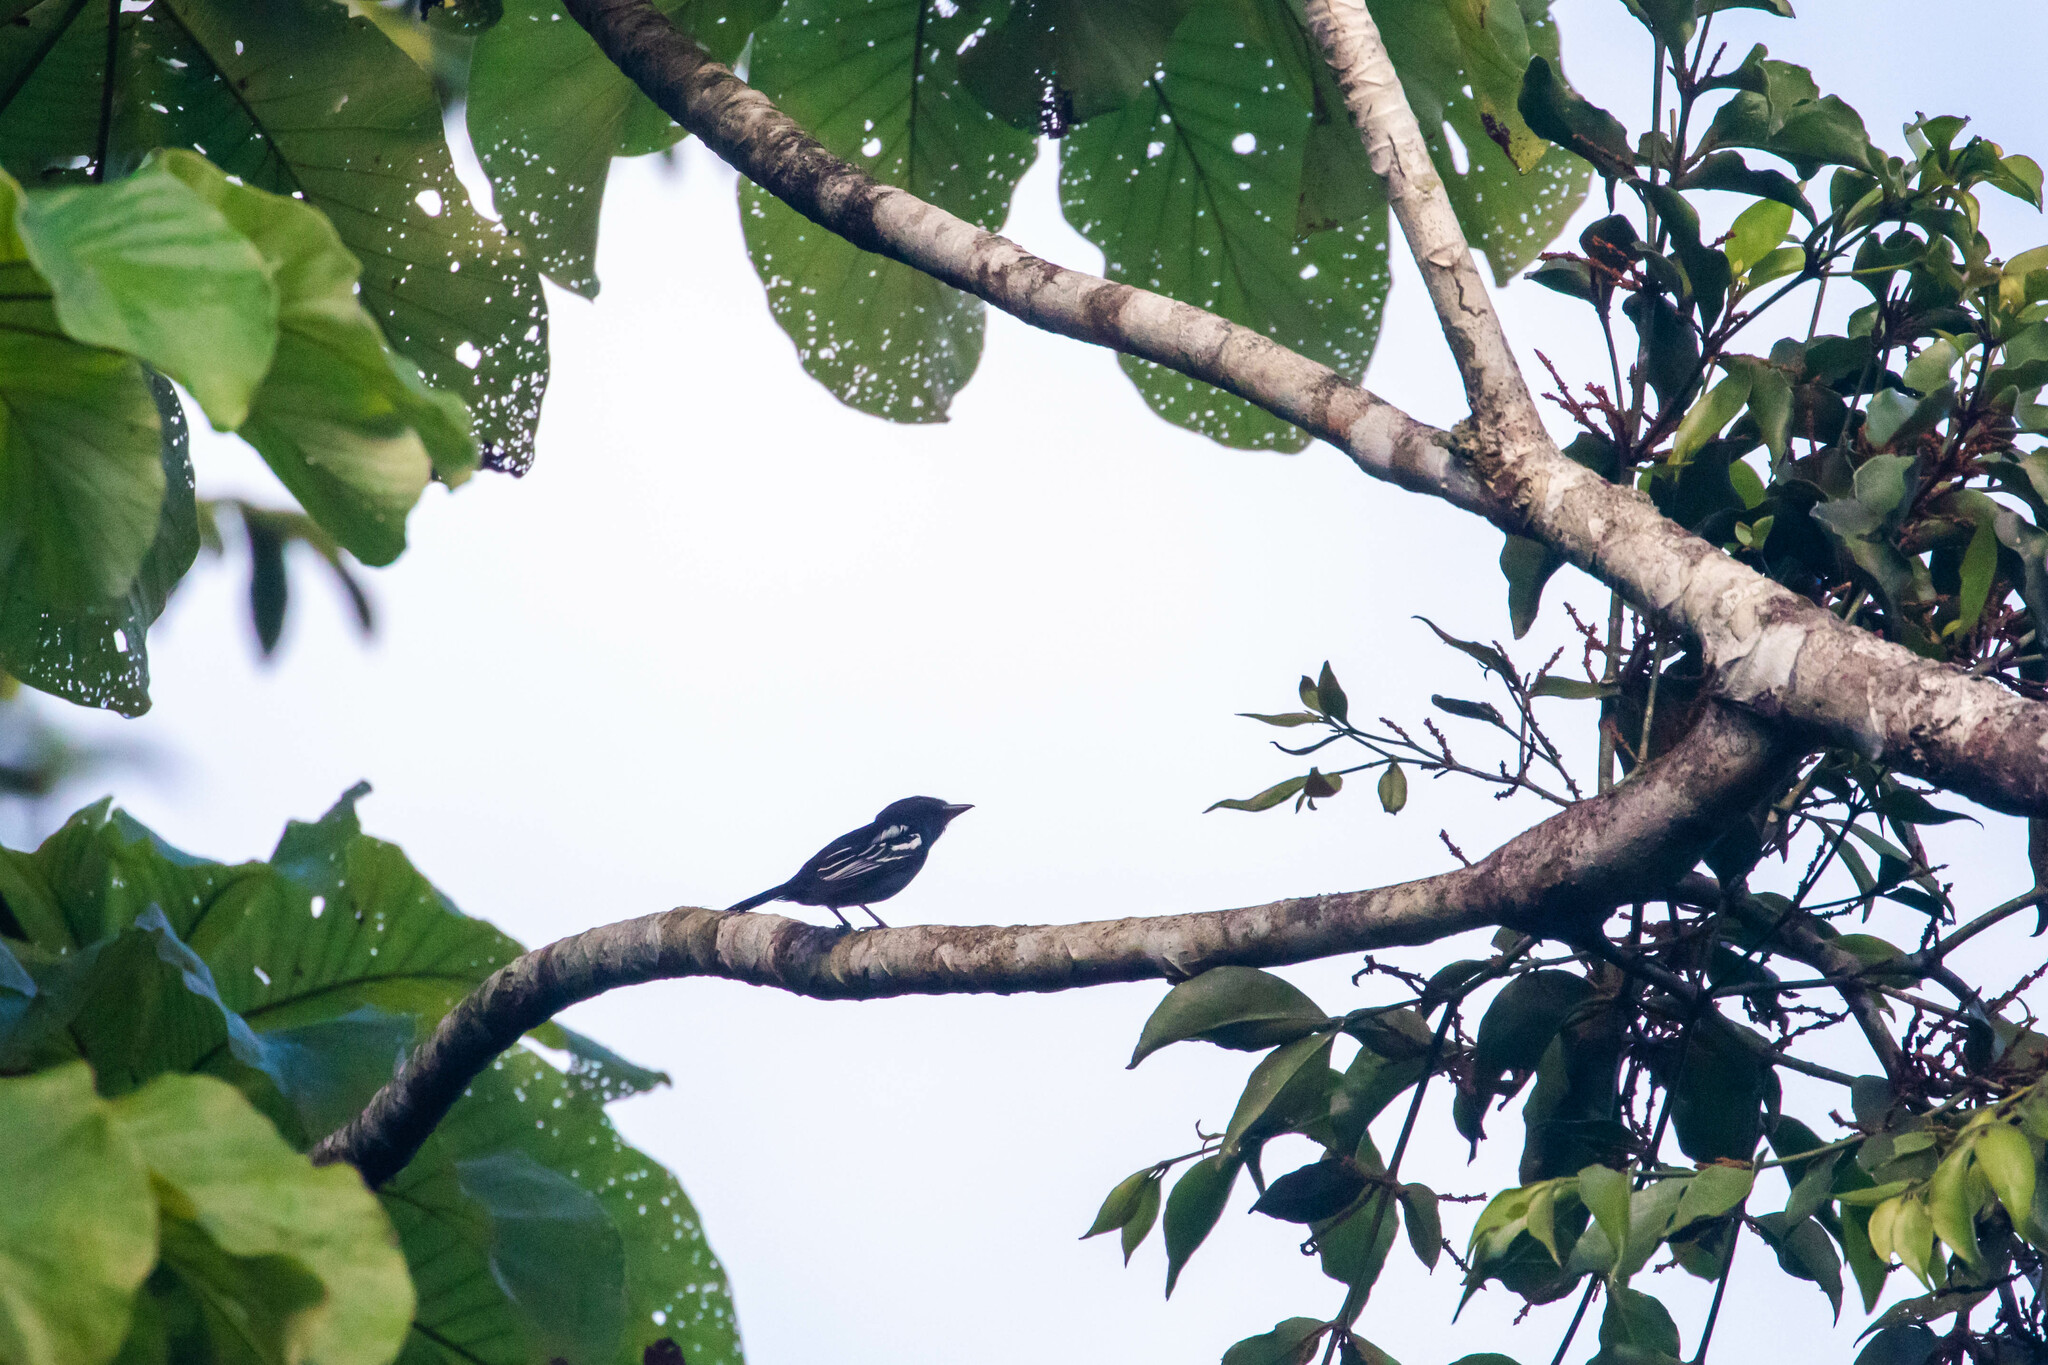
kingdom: Animalia
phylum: Chordata
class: Aves
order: Passeriformes
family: Cotingidae
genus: Pachyramphus
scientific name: Pachyramphus polychopterus
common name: White-winged becard
